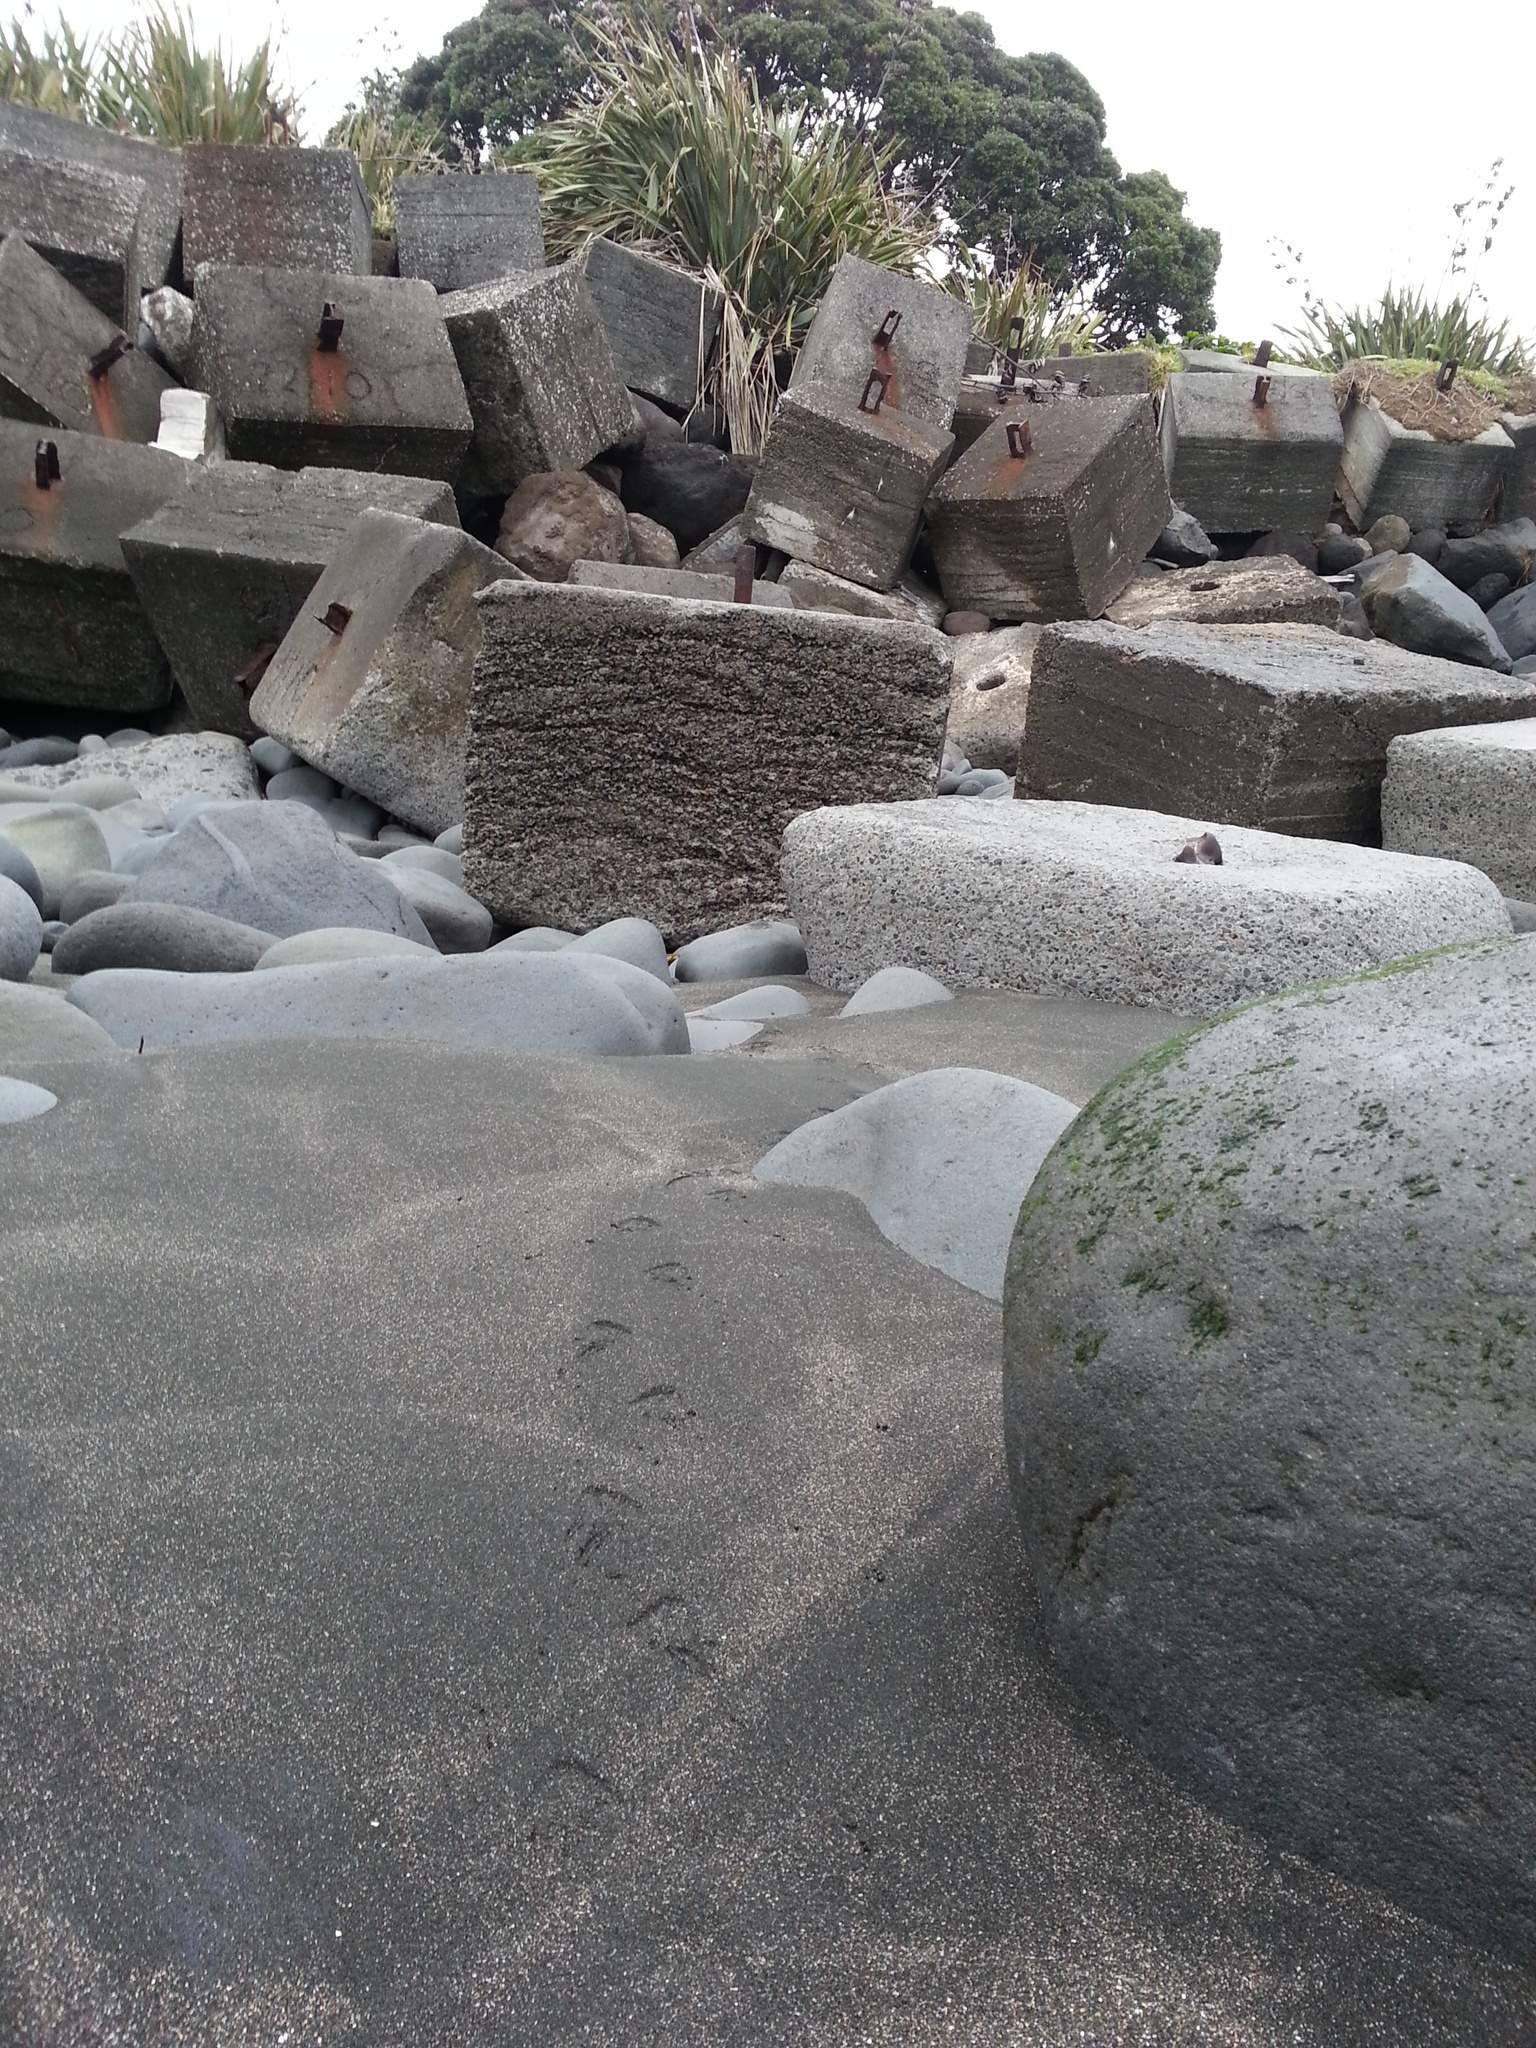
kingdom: Animalia
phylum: Chordata
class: Aves
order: Sphenisciformes
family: Spheniscidae
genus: Eudyptula
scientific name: Eudyptula minor
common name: Little penguin
